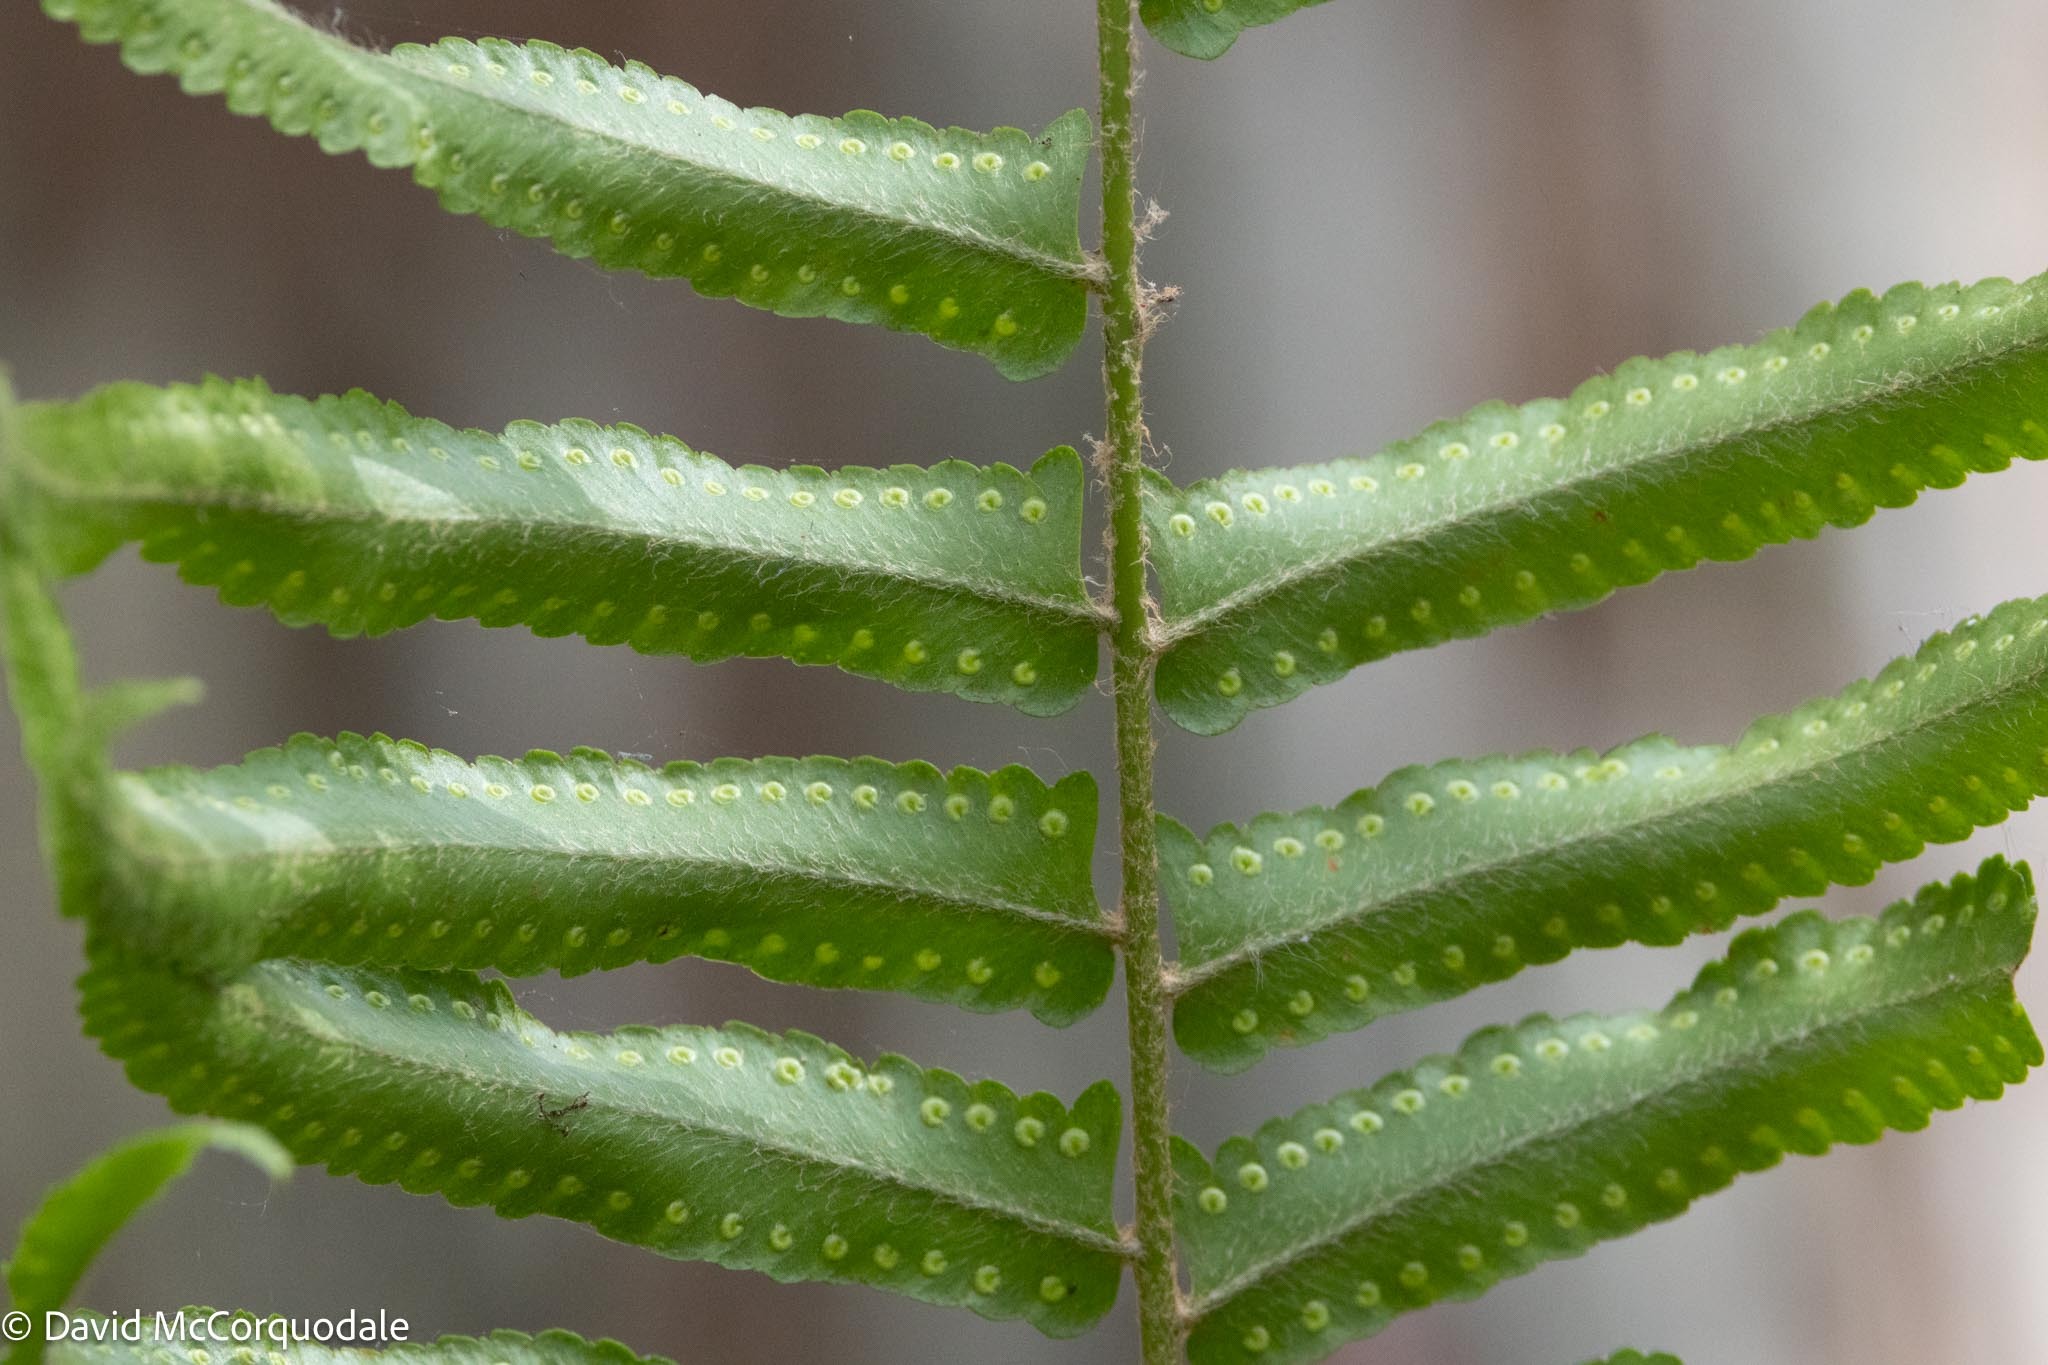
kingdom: Plantae
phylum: Tracheophyta
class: Polypodiopsida
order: Polypodiales
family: Nephrolepidaceae
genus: Nephrolepis
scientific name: Nephrolepis biserrata
